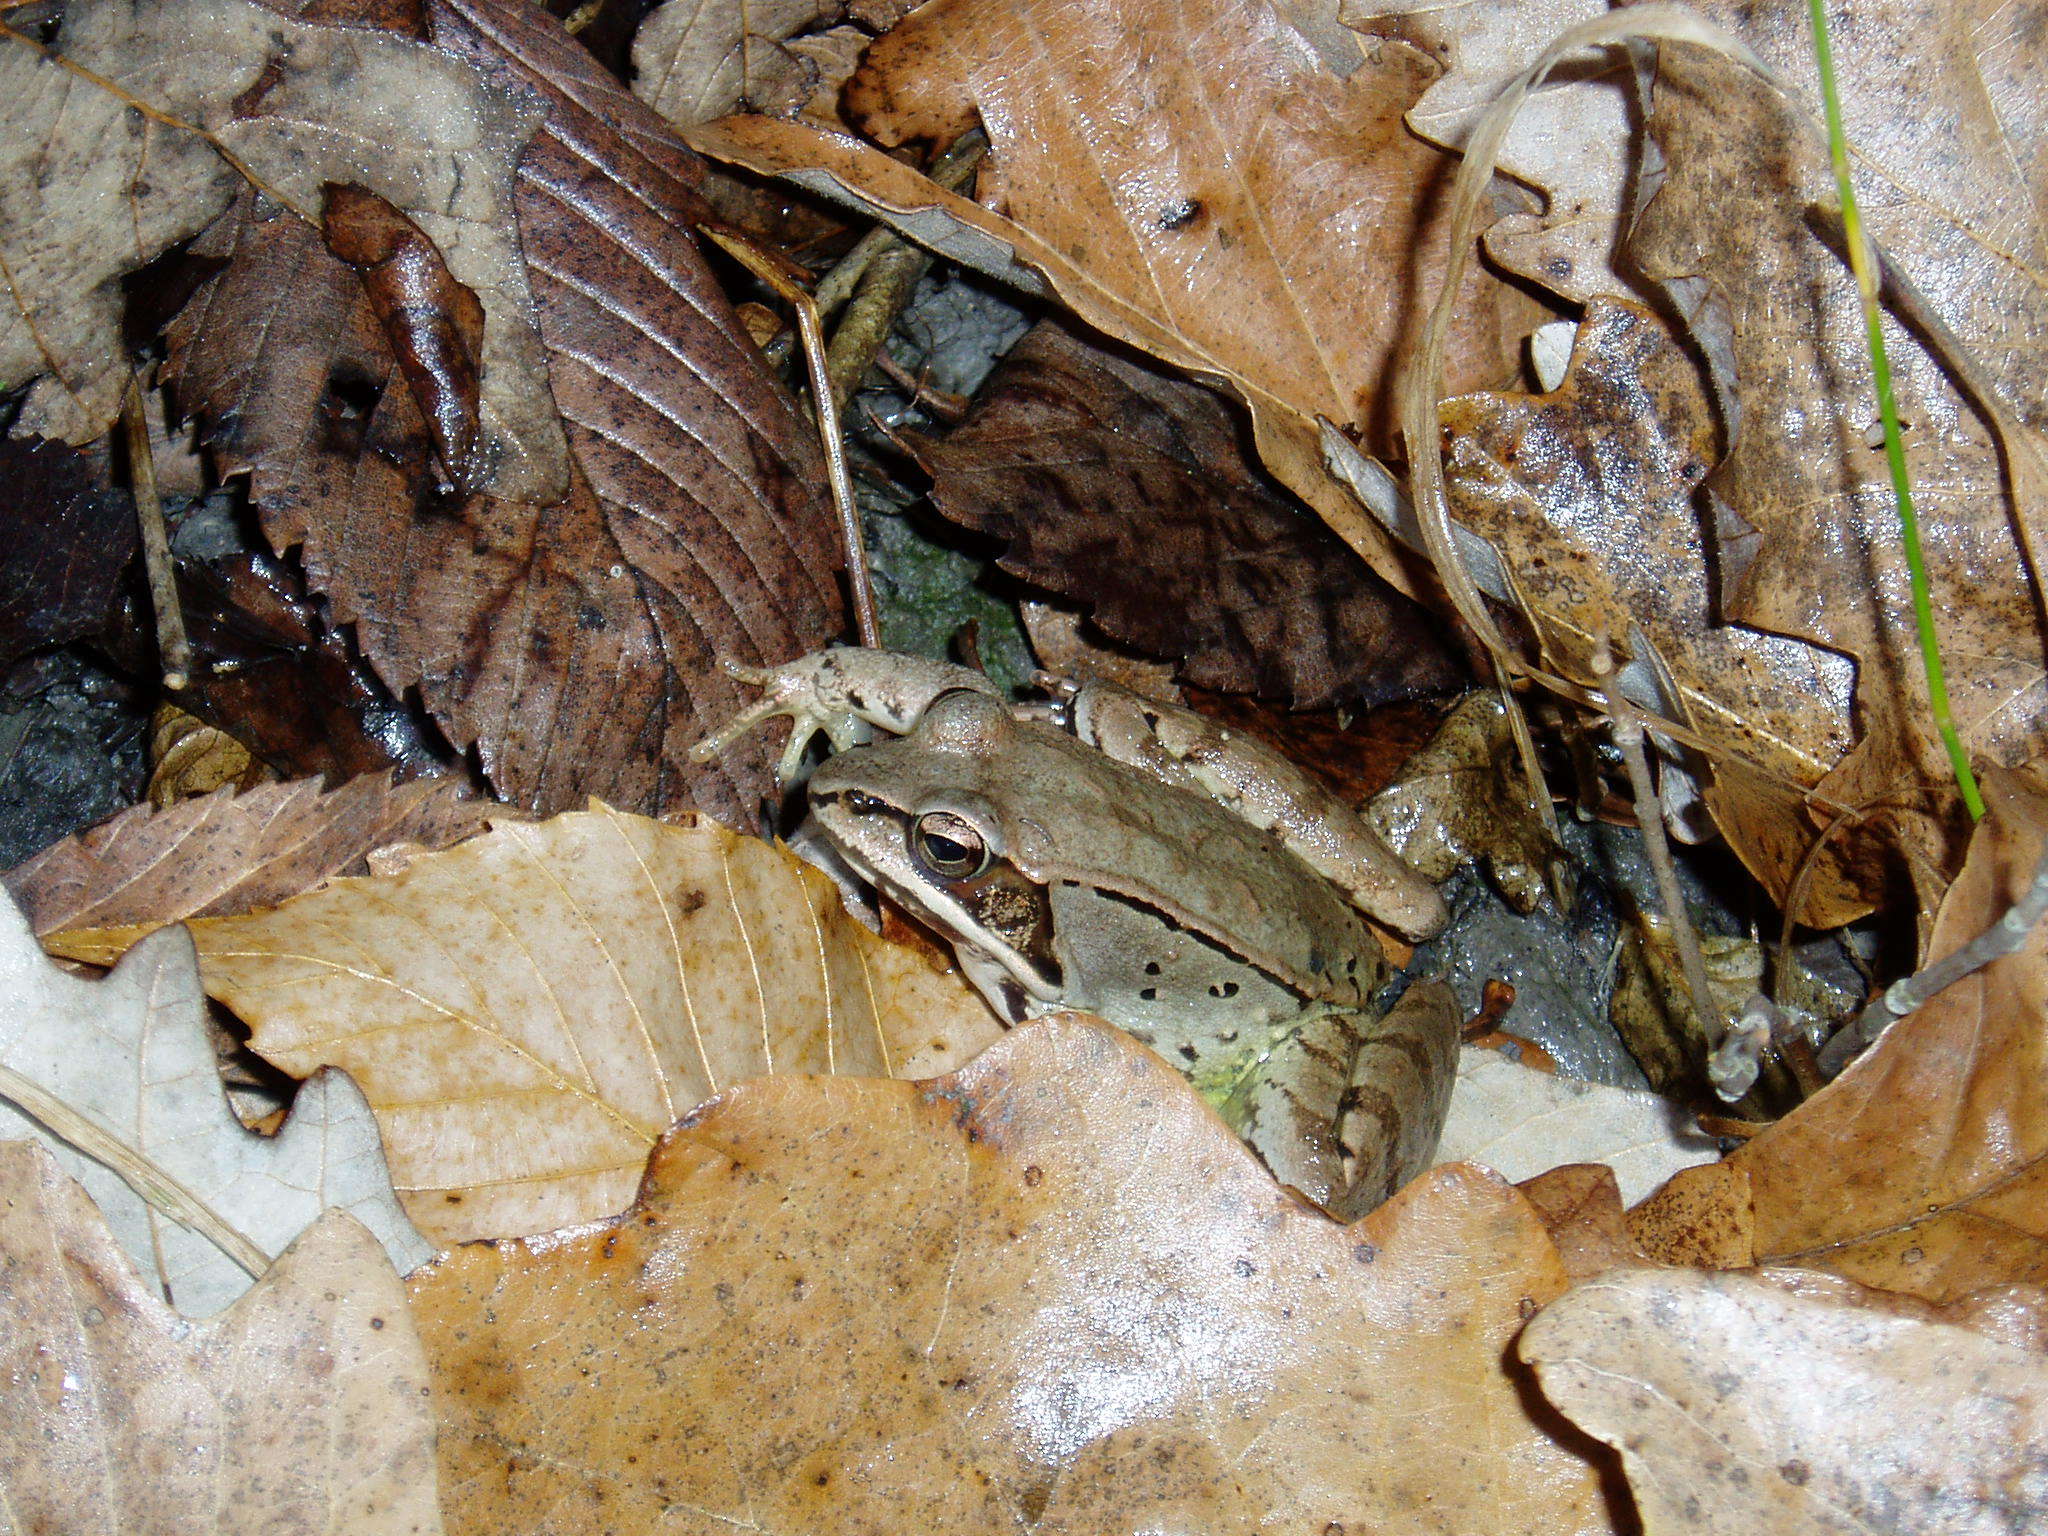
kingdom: Animalia
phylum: Chordata
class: Amphibia
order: Anura
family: Ranidae
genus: Lithobates
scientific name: Lithobates sylvaticus
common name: Wood frog
